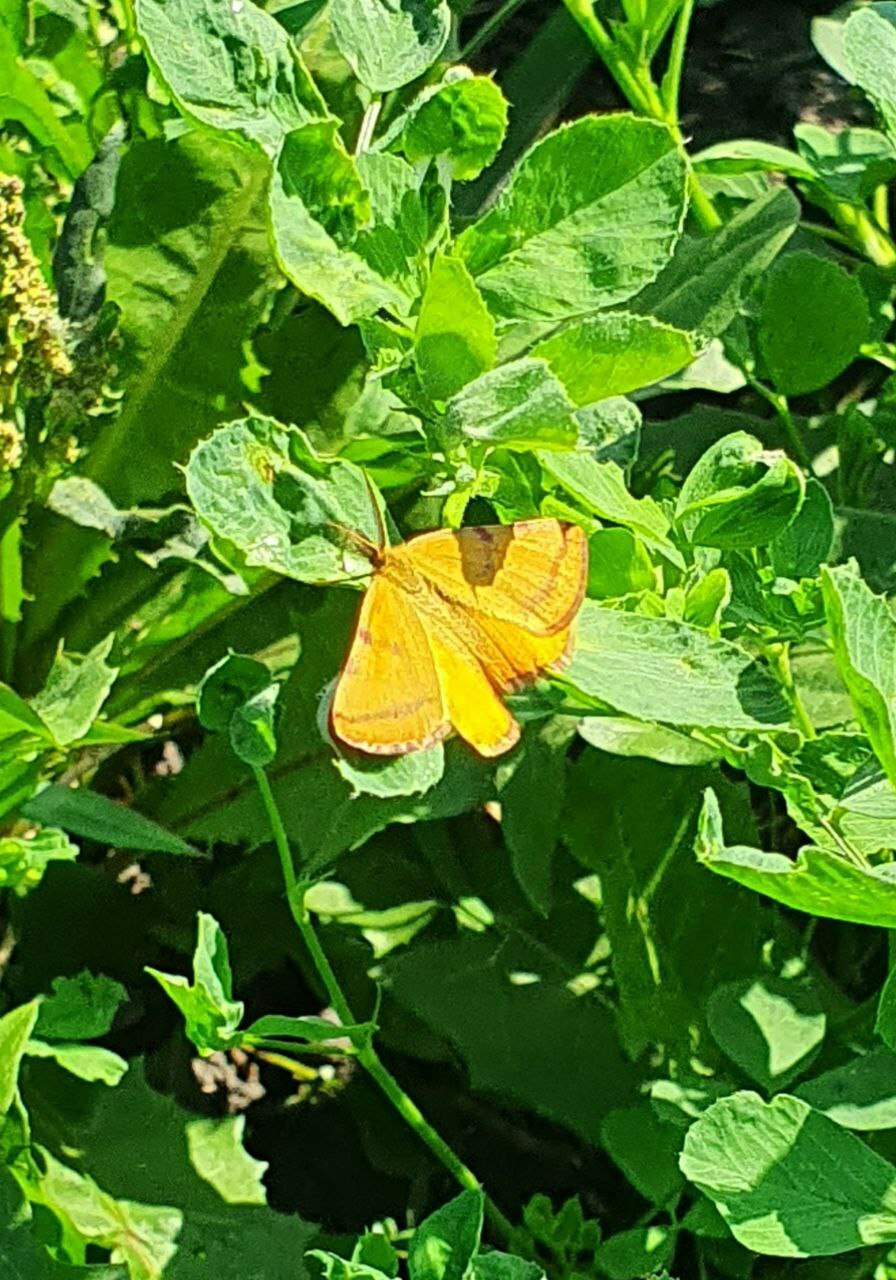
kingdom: Animalia
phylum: Arthropoda
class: Insecta
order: Lepidoptera
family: Geometridae
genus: Lythria
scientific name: Lythria purpuraria
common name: Purple-barred yellow
